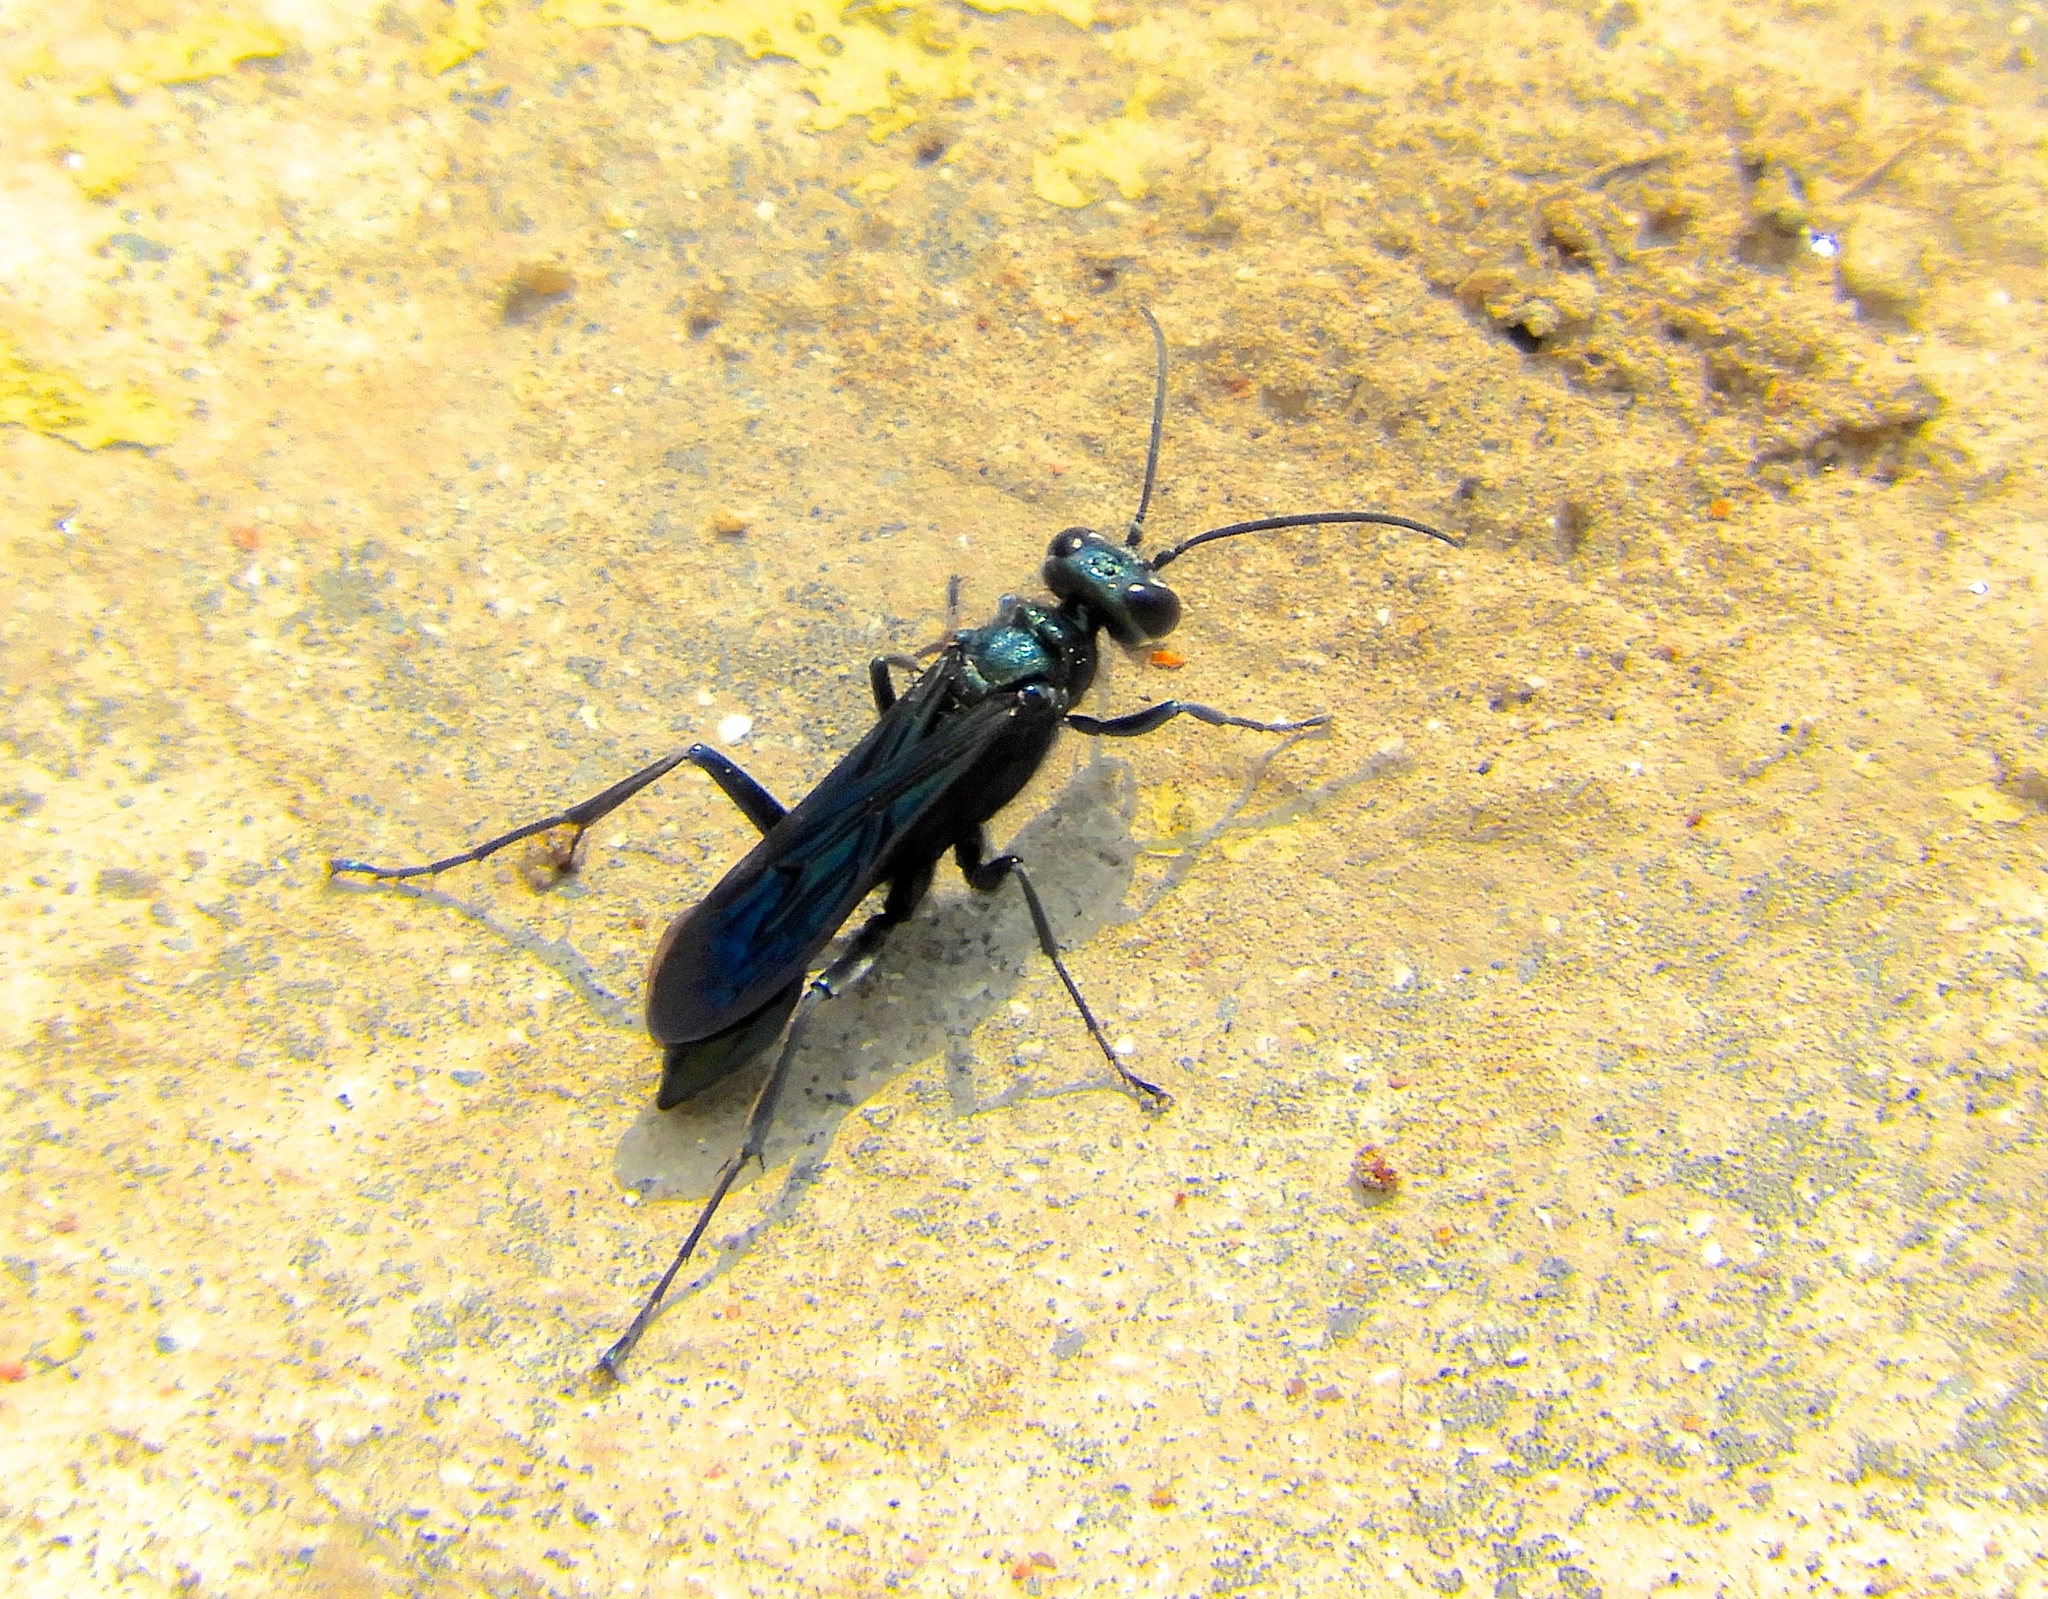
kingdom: Animalia
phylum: Arthropoda
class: Insecta
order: Hymenoptera
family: Sphecidae
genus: Chalybion
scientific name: Chalybion
